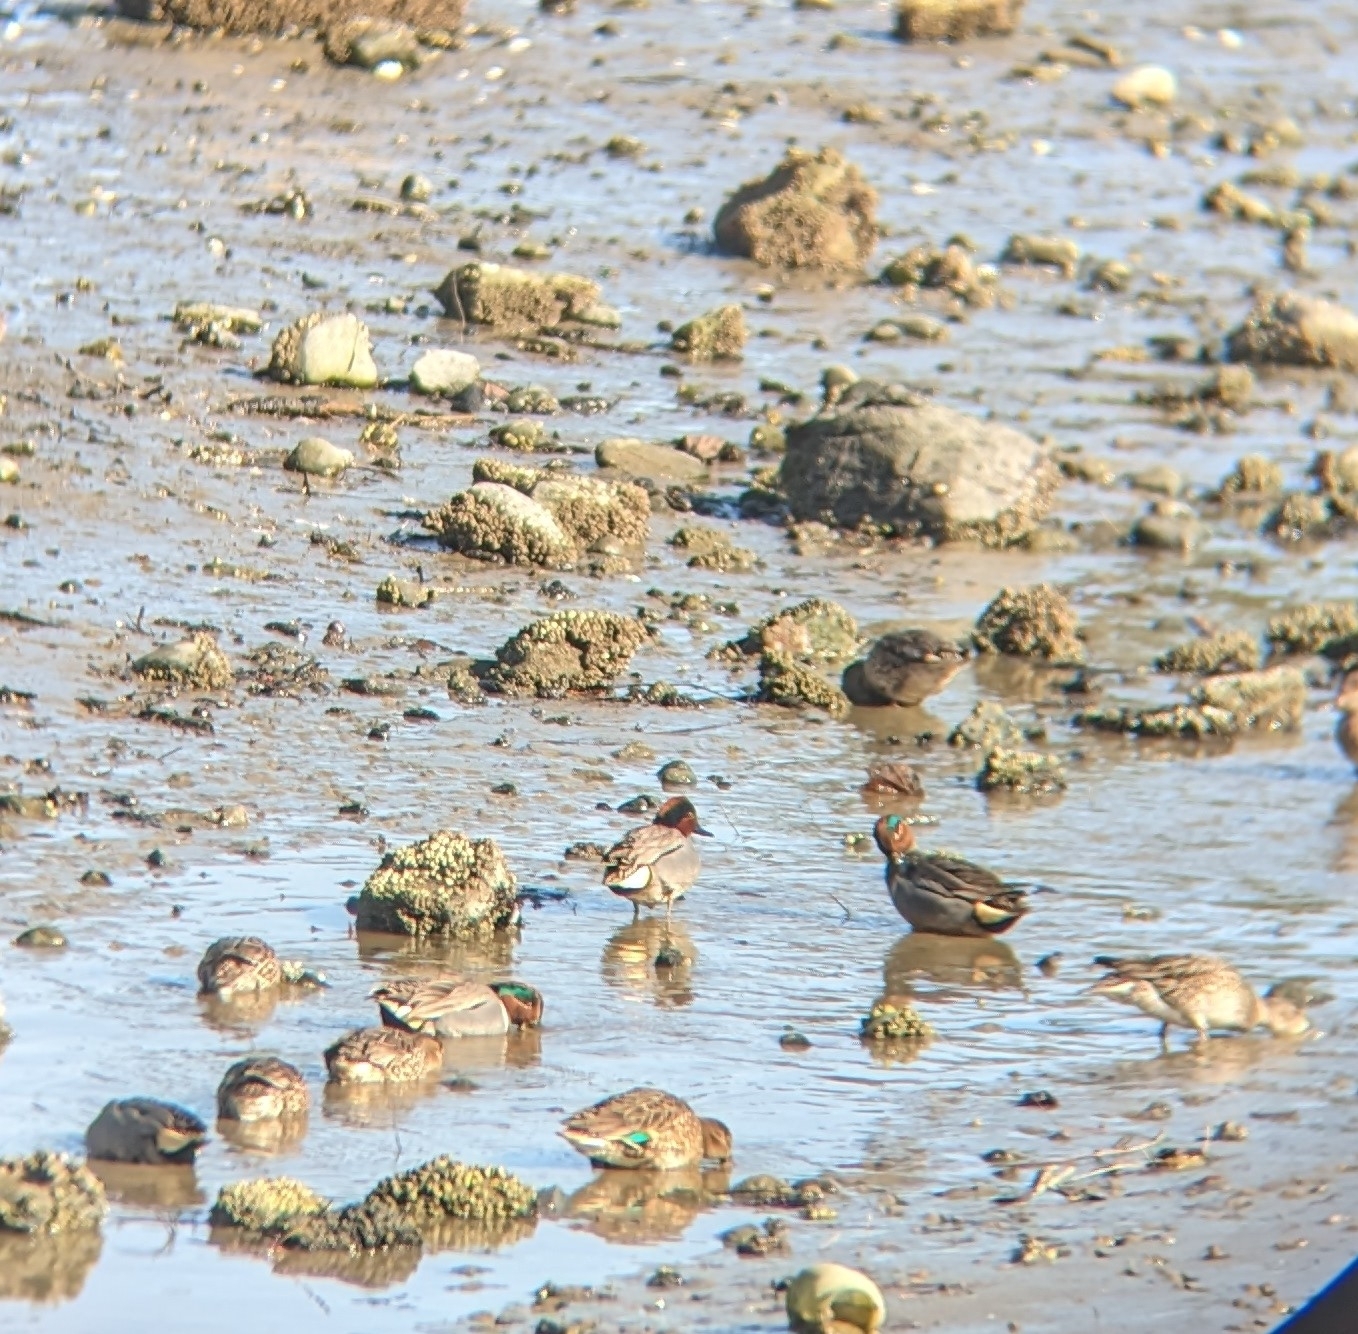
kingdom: Animalia
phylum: Chordata
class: Aves
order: Anseriformes
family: Anatidae
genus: Anas
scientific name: Anas carolinensis
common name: Green-winged teal
